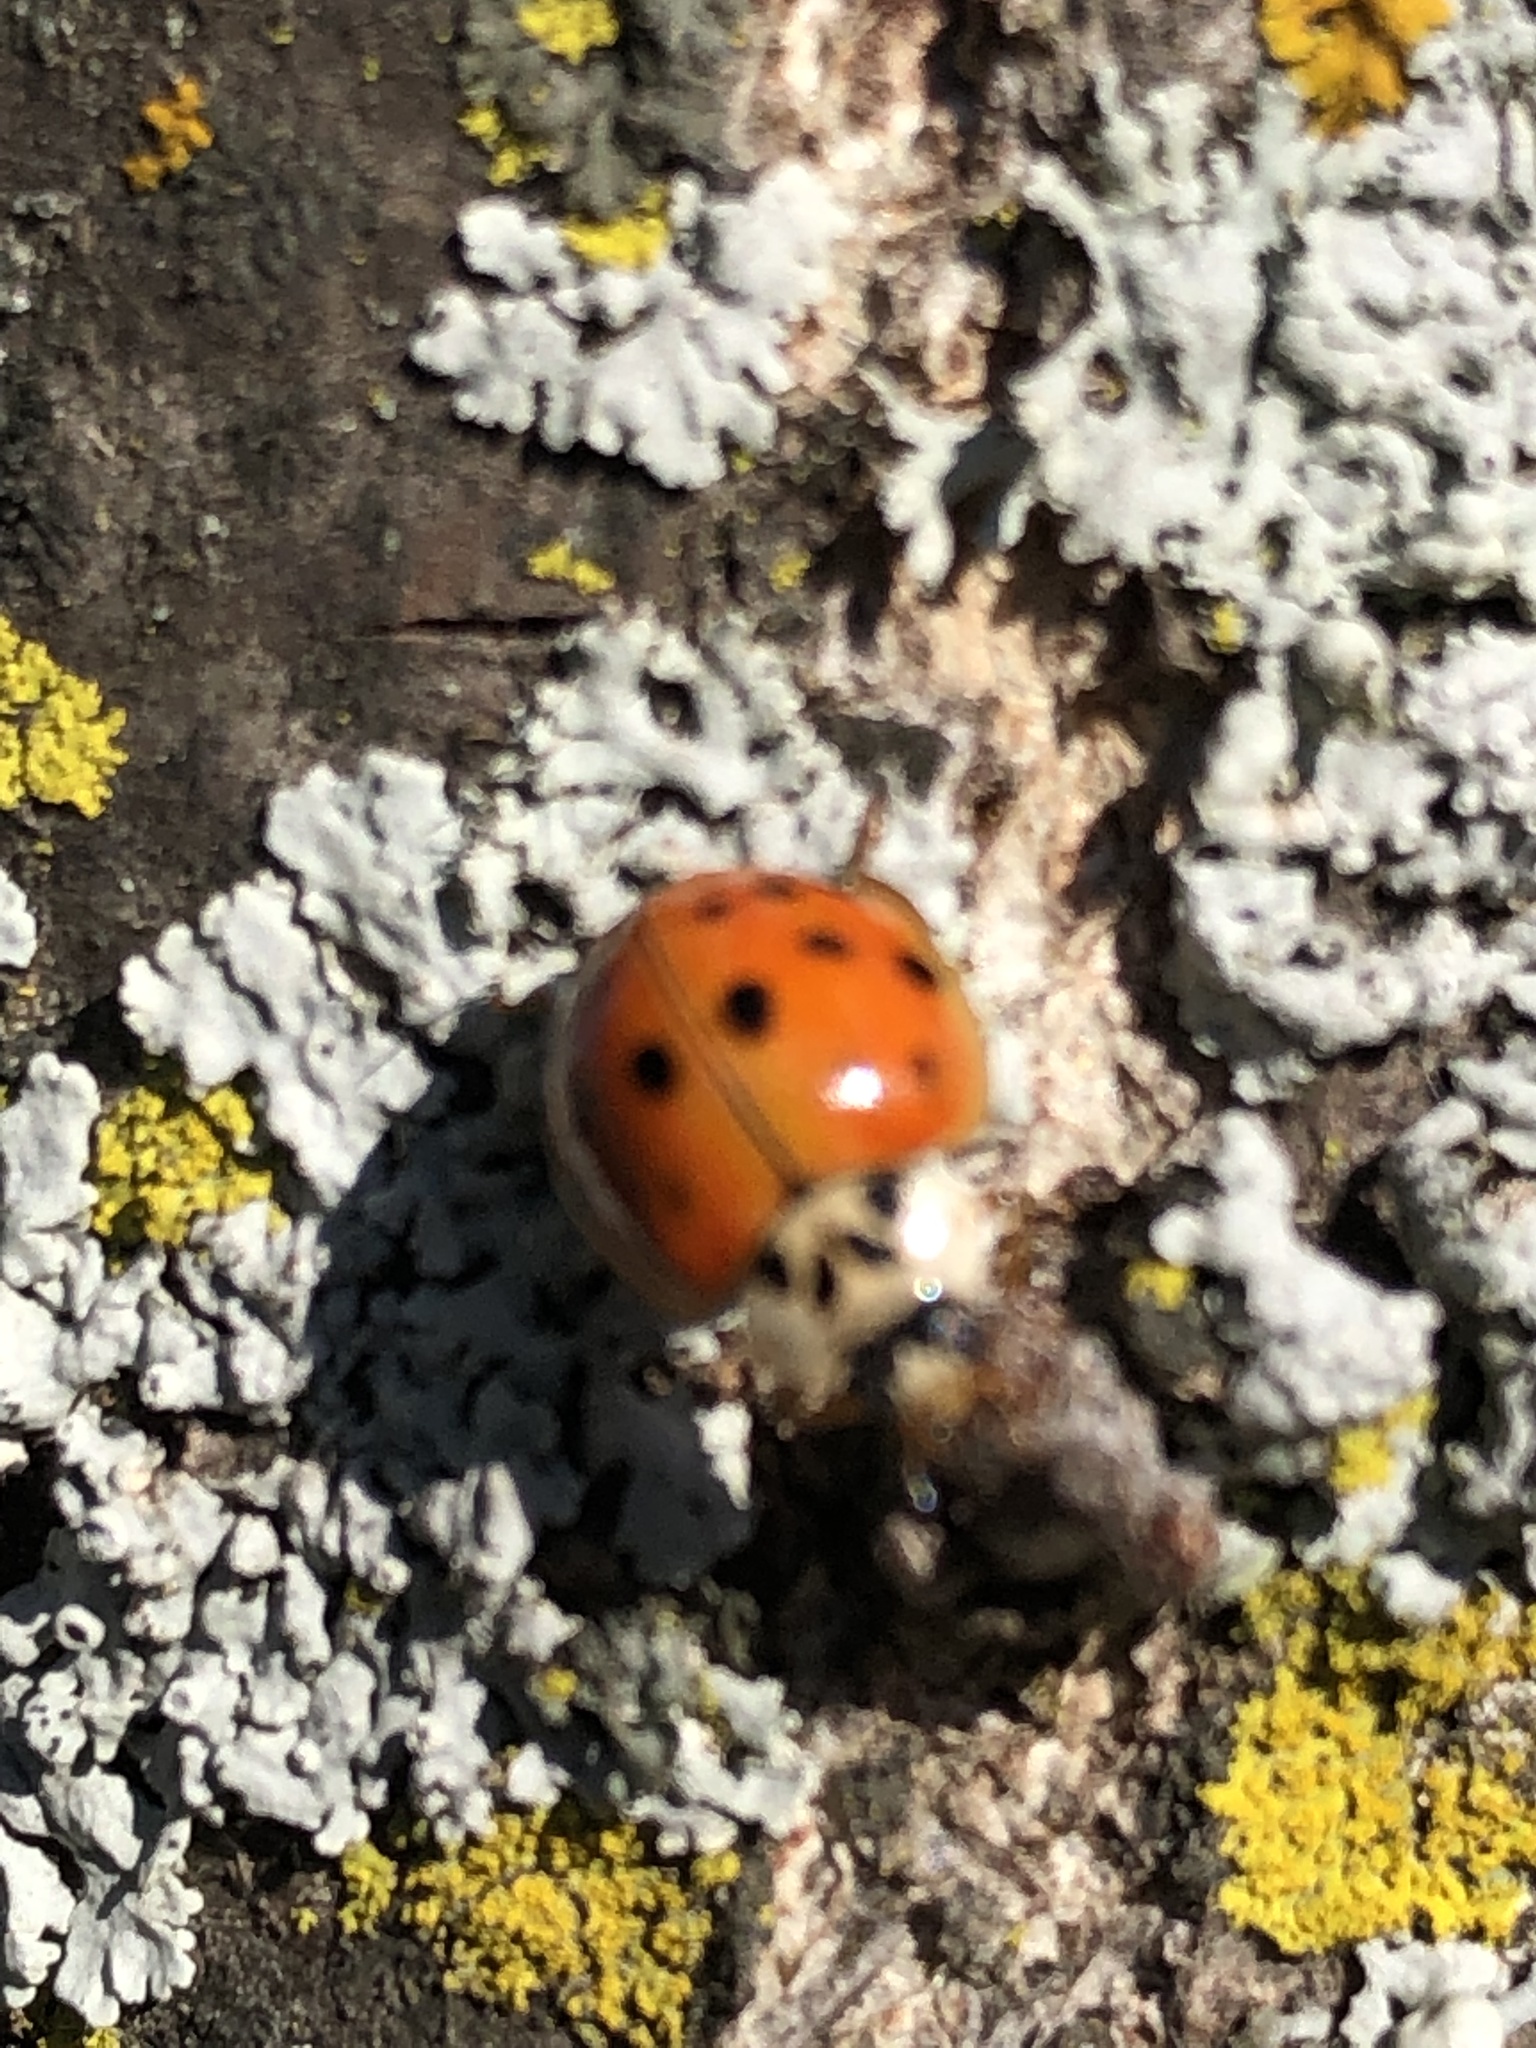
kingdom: Animalia
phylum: Arthropoda
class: Insecta
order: Coleoptera
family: Coccinellidae
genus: Harmonia
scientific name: Harmonia axyridis
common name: Harlequin ladybird
